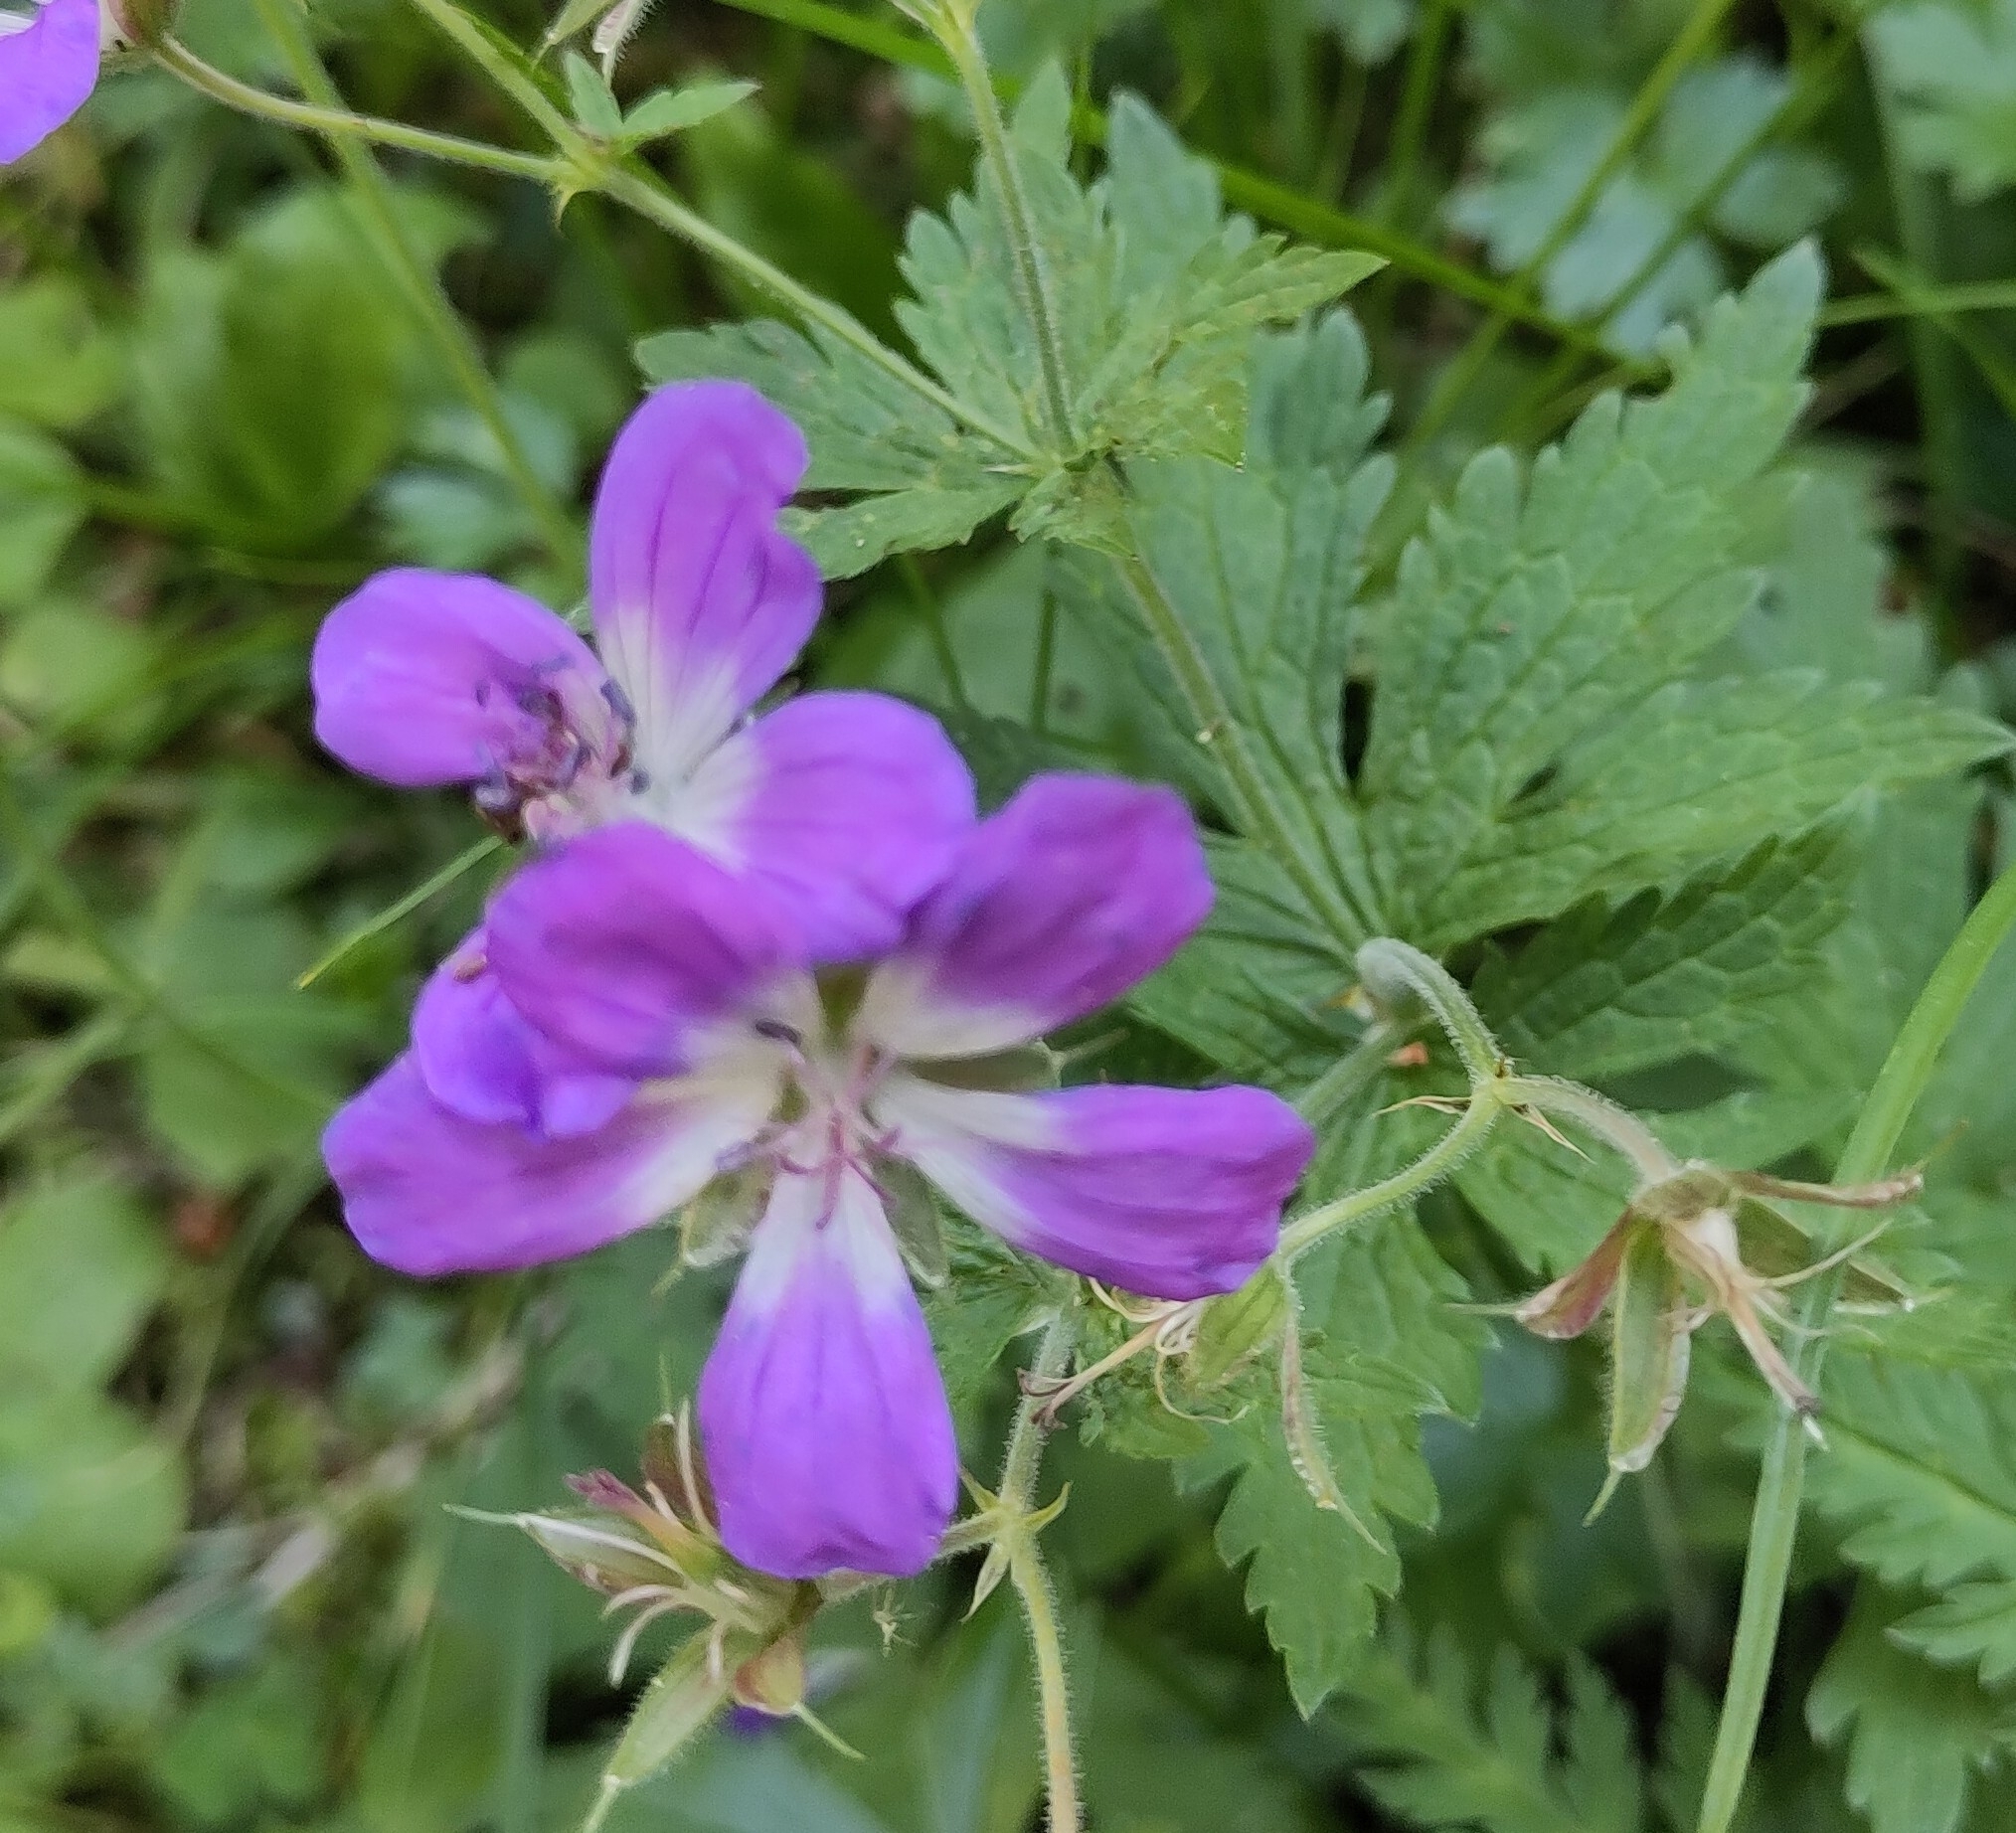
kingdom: Plantae
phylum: Tracheophyta
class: Magnoliopsida
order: Geraniales
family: Geraniaceae
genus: Geranium
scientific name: Geranium sylvaticum
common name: Wood crane's-bill
